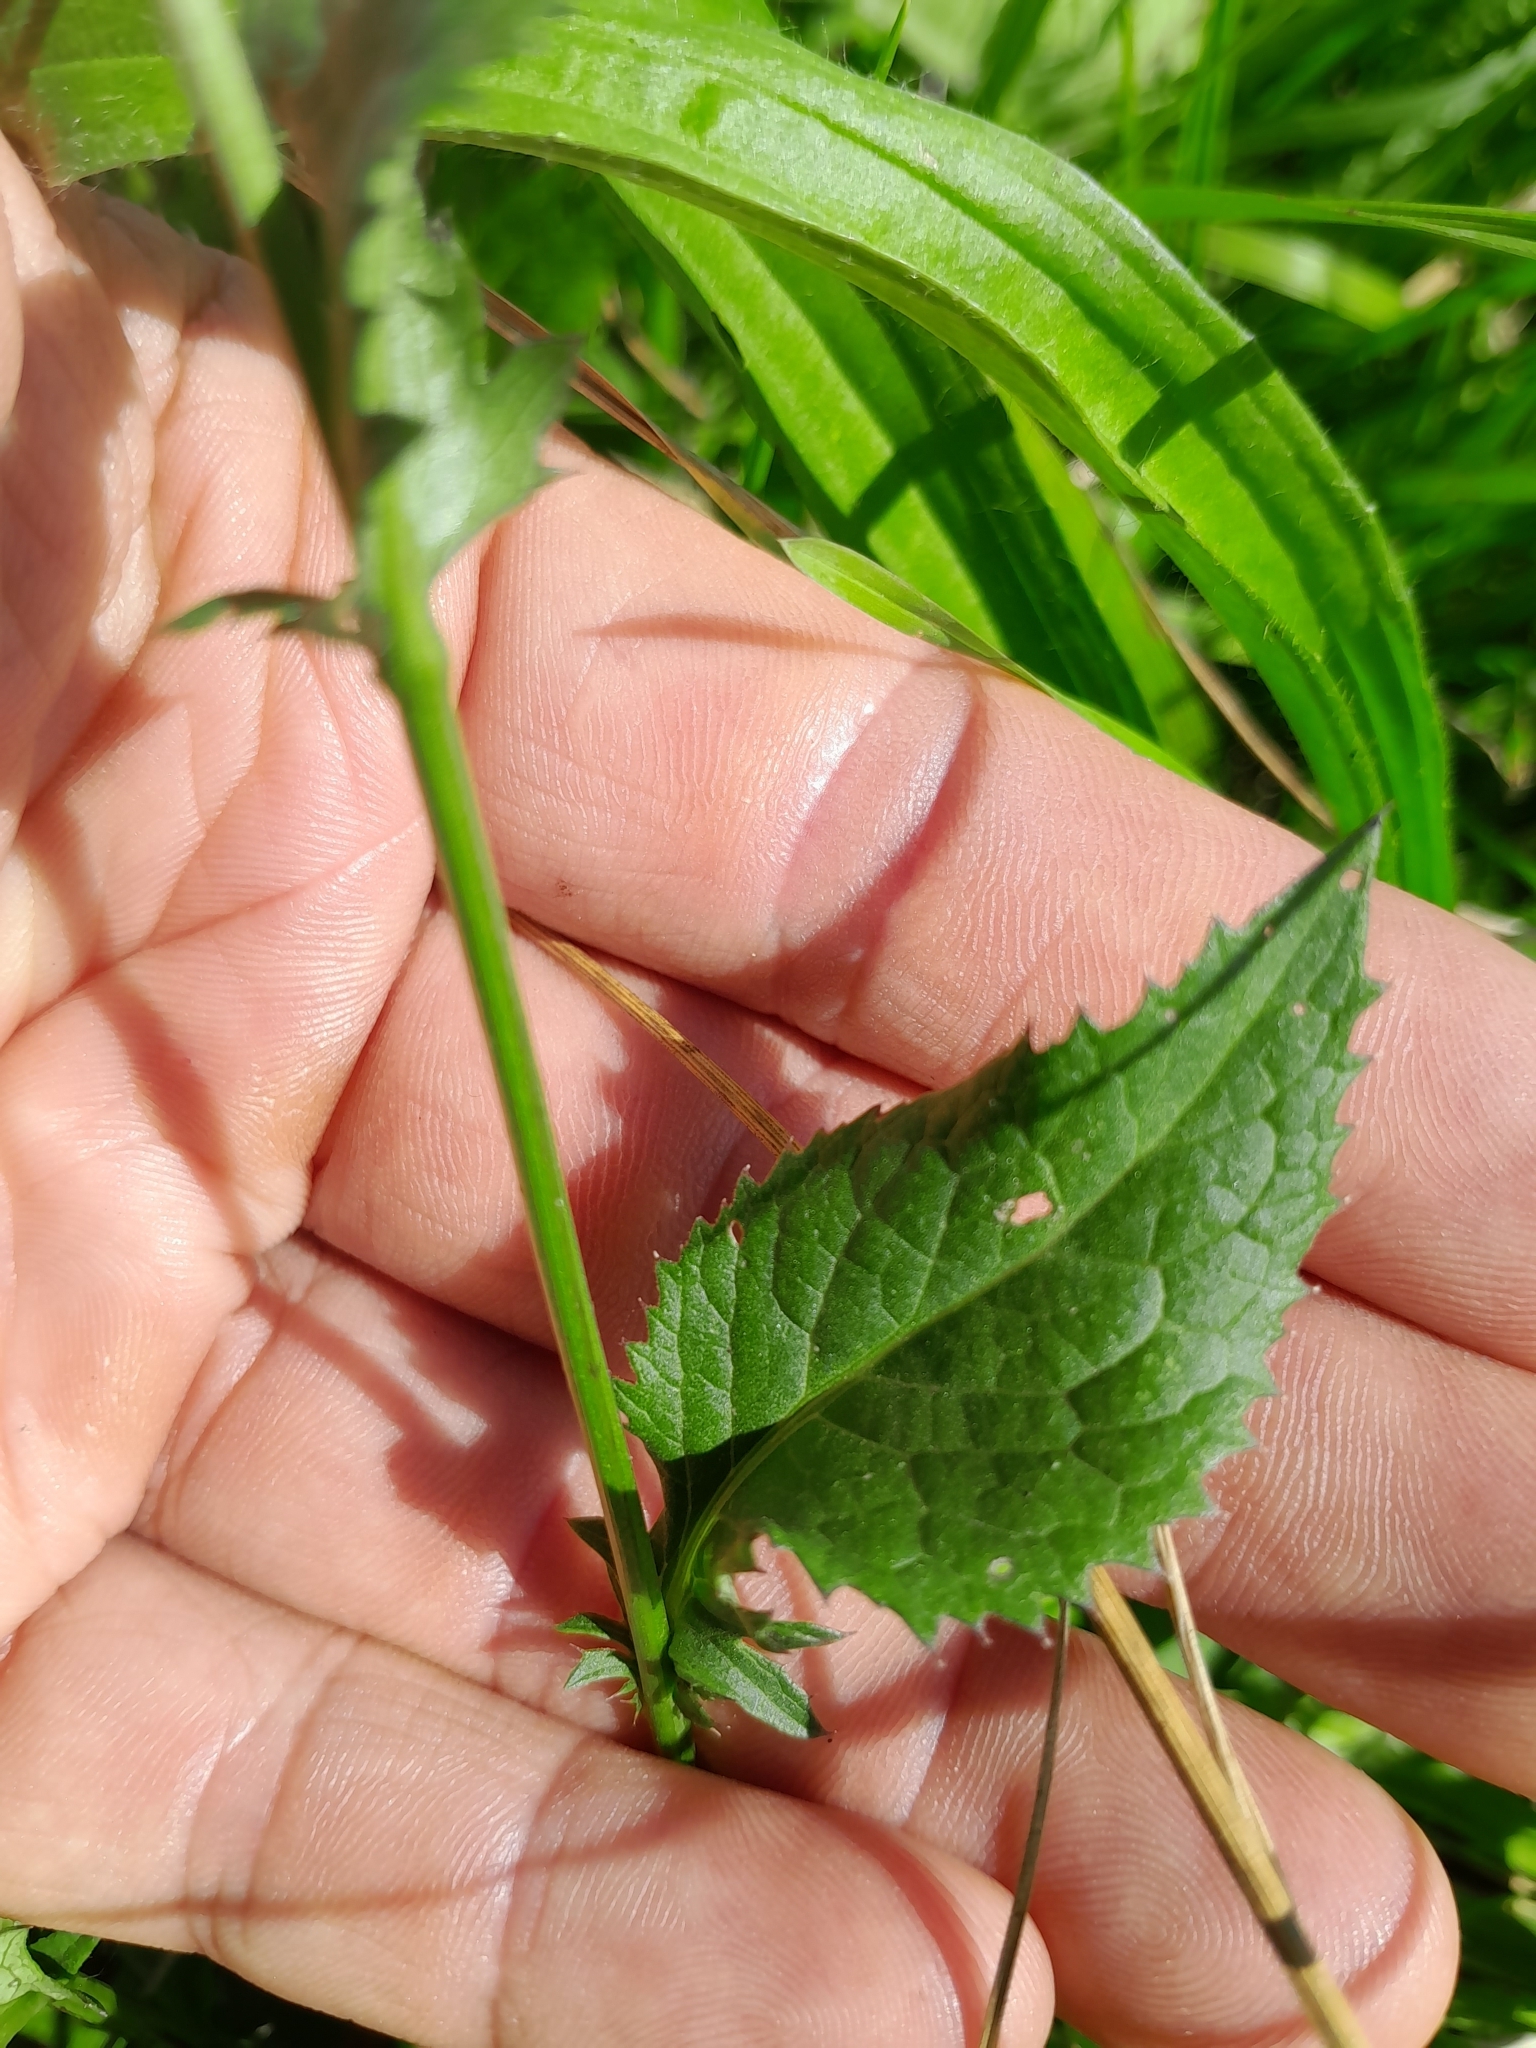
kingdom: Plantae
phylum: Tracheophyta
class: Magnoliopsida
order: Asterales
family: Asteraceae
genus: Serratula
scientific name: Serratula tinctoria
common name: Saw-wort
